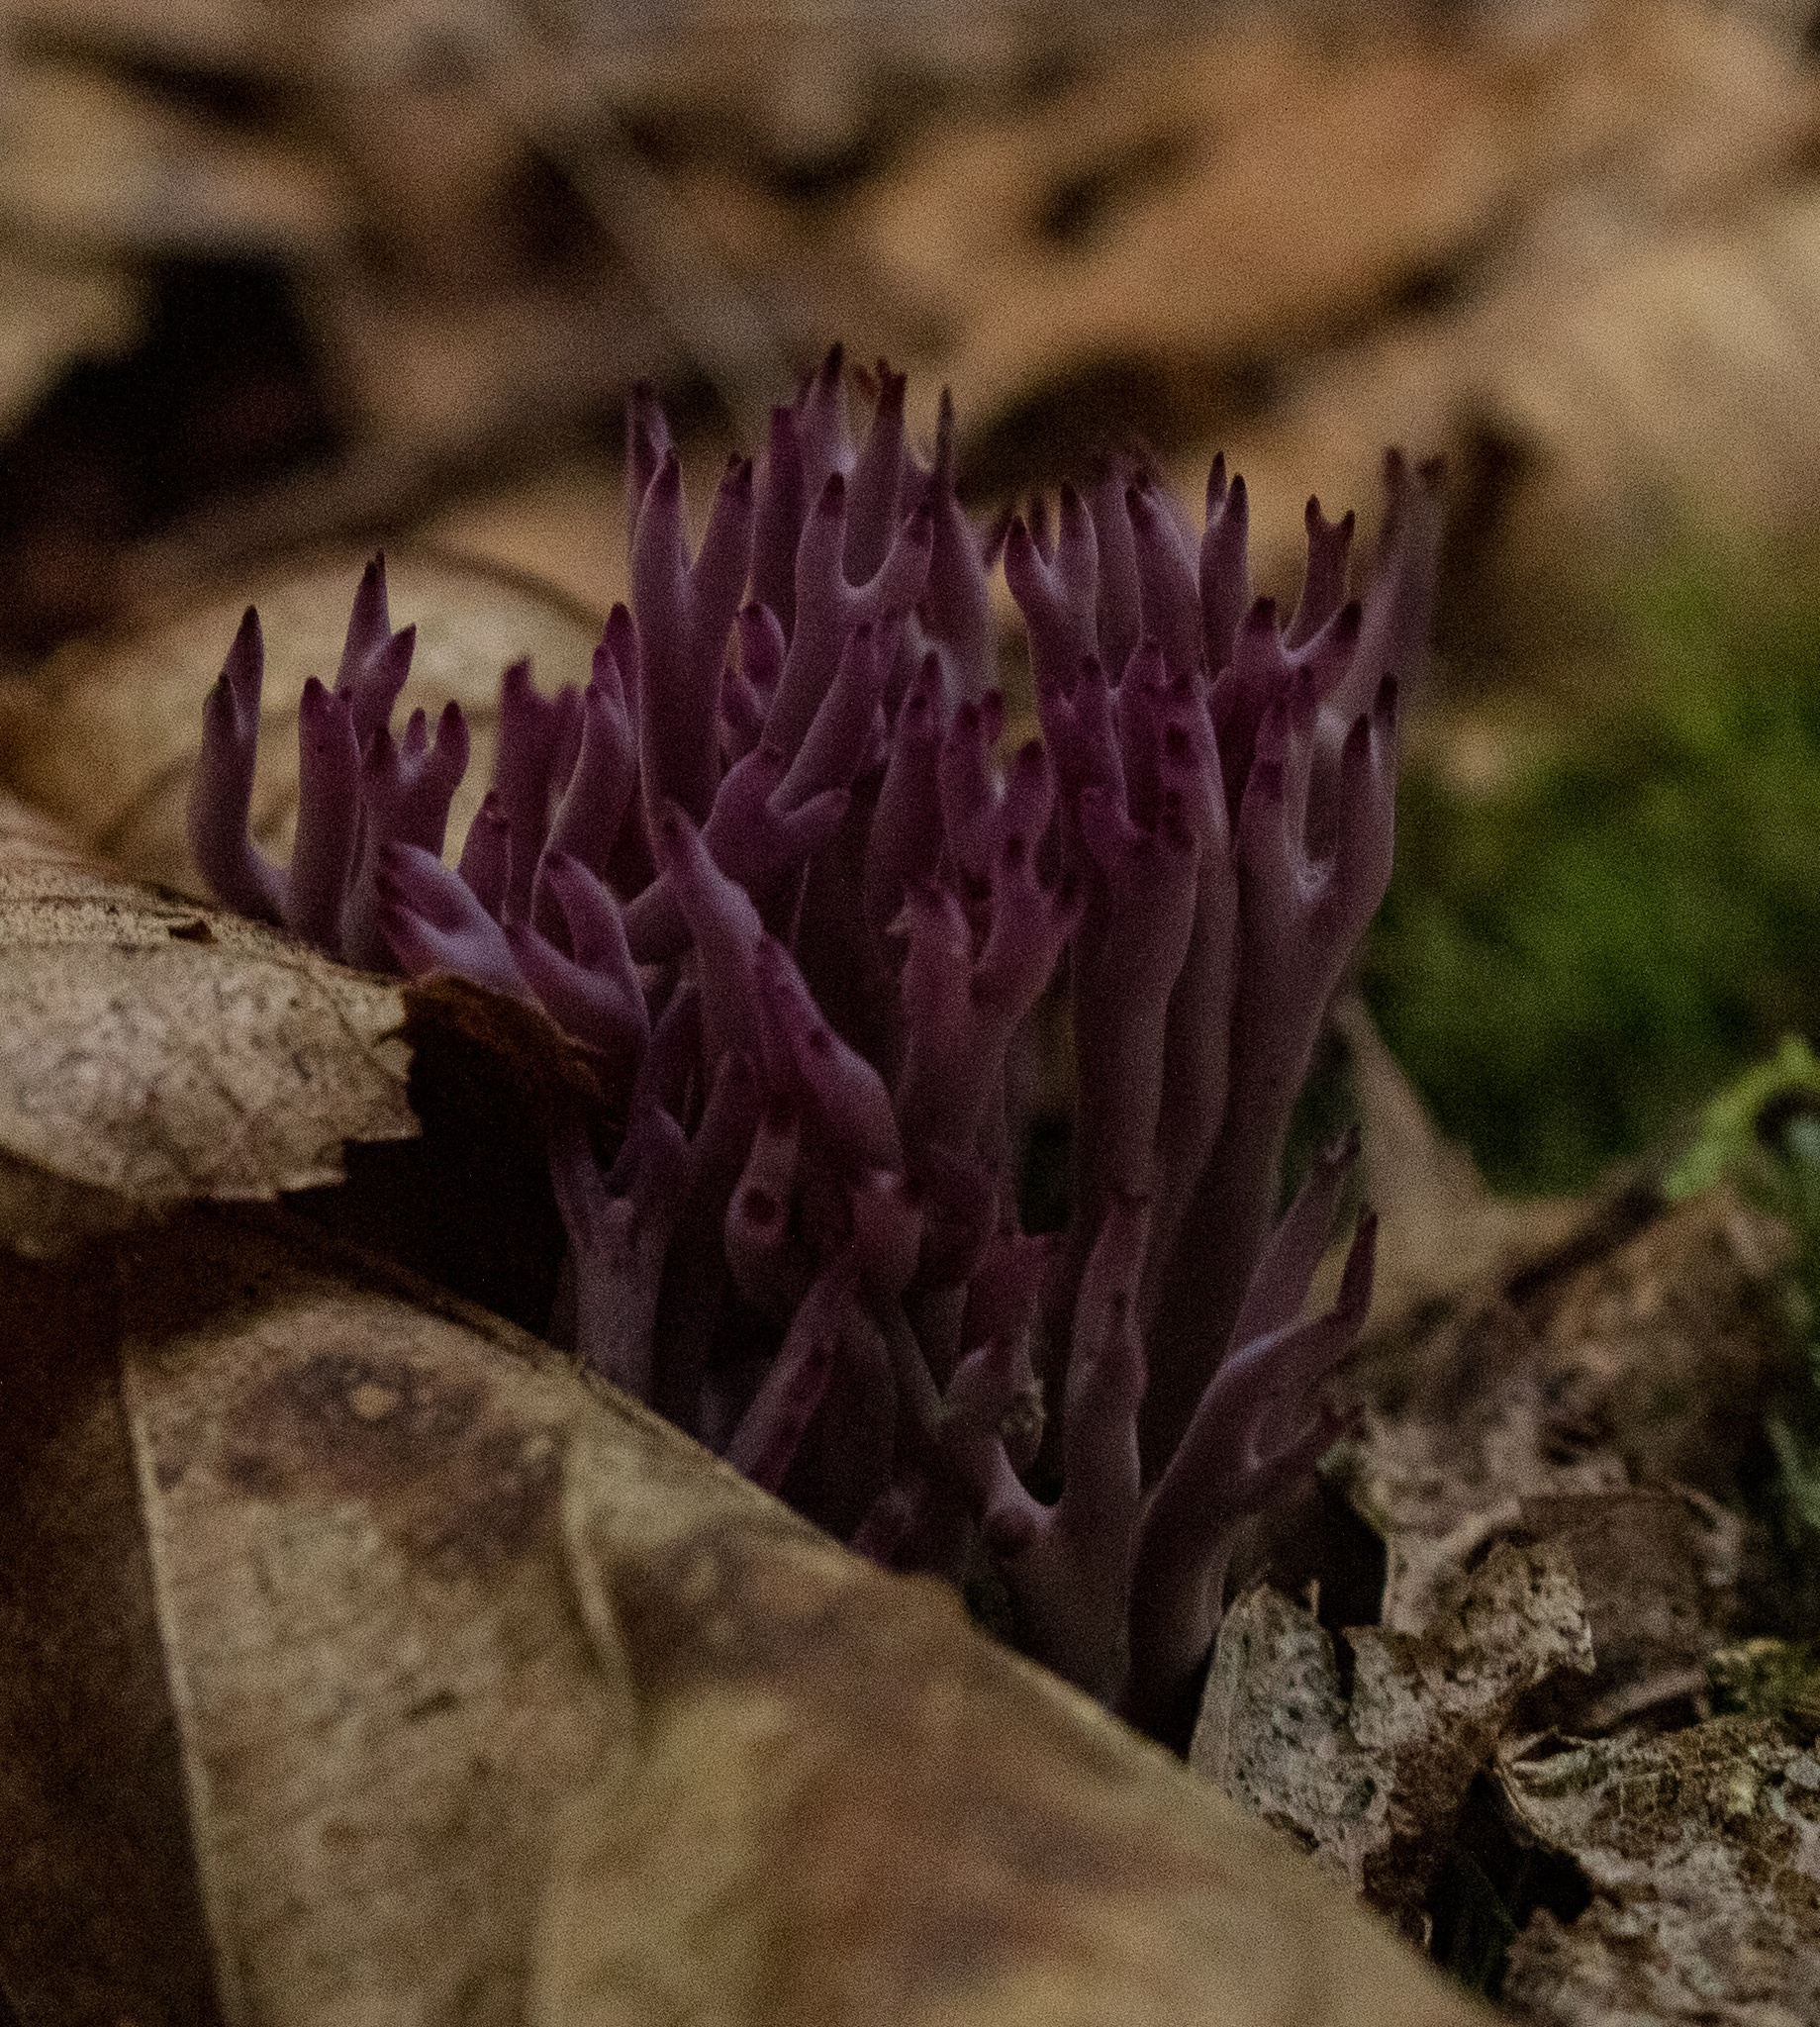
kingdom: Fungi
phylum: Basidiomycota
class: Agaricomycetes
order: Agaricales
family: Clavariaceae
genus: Clavaria
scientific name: Clavaria zollingeri
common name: Violet coral
